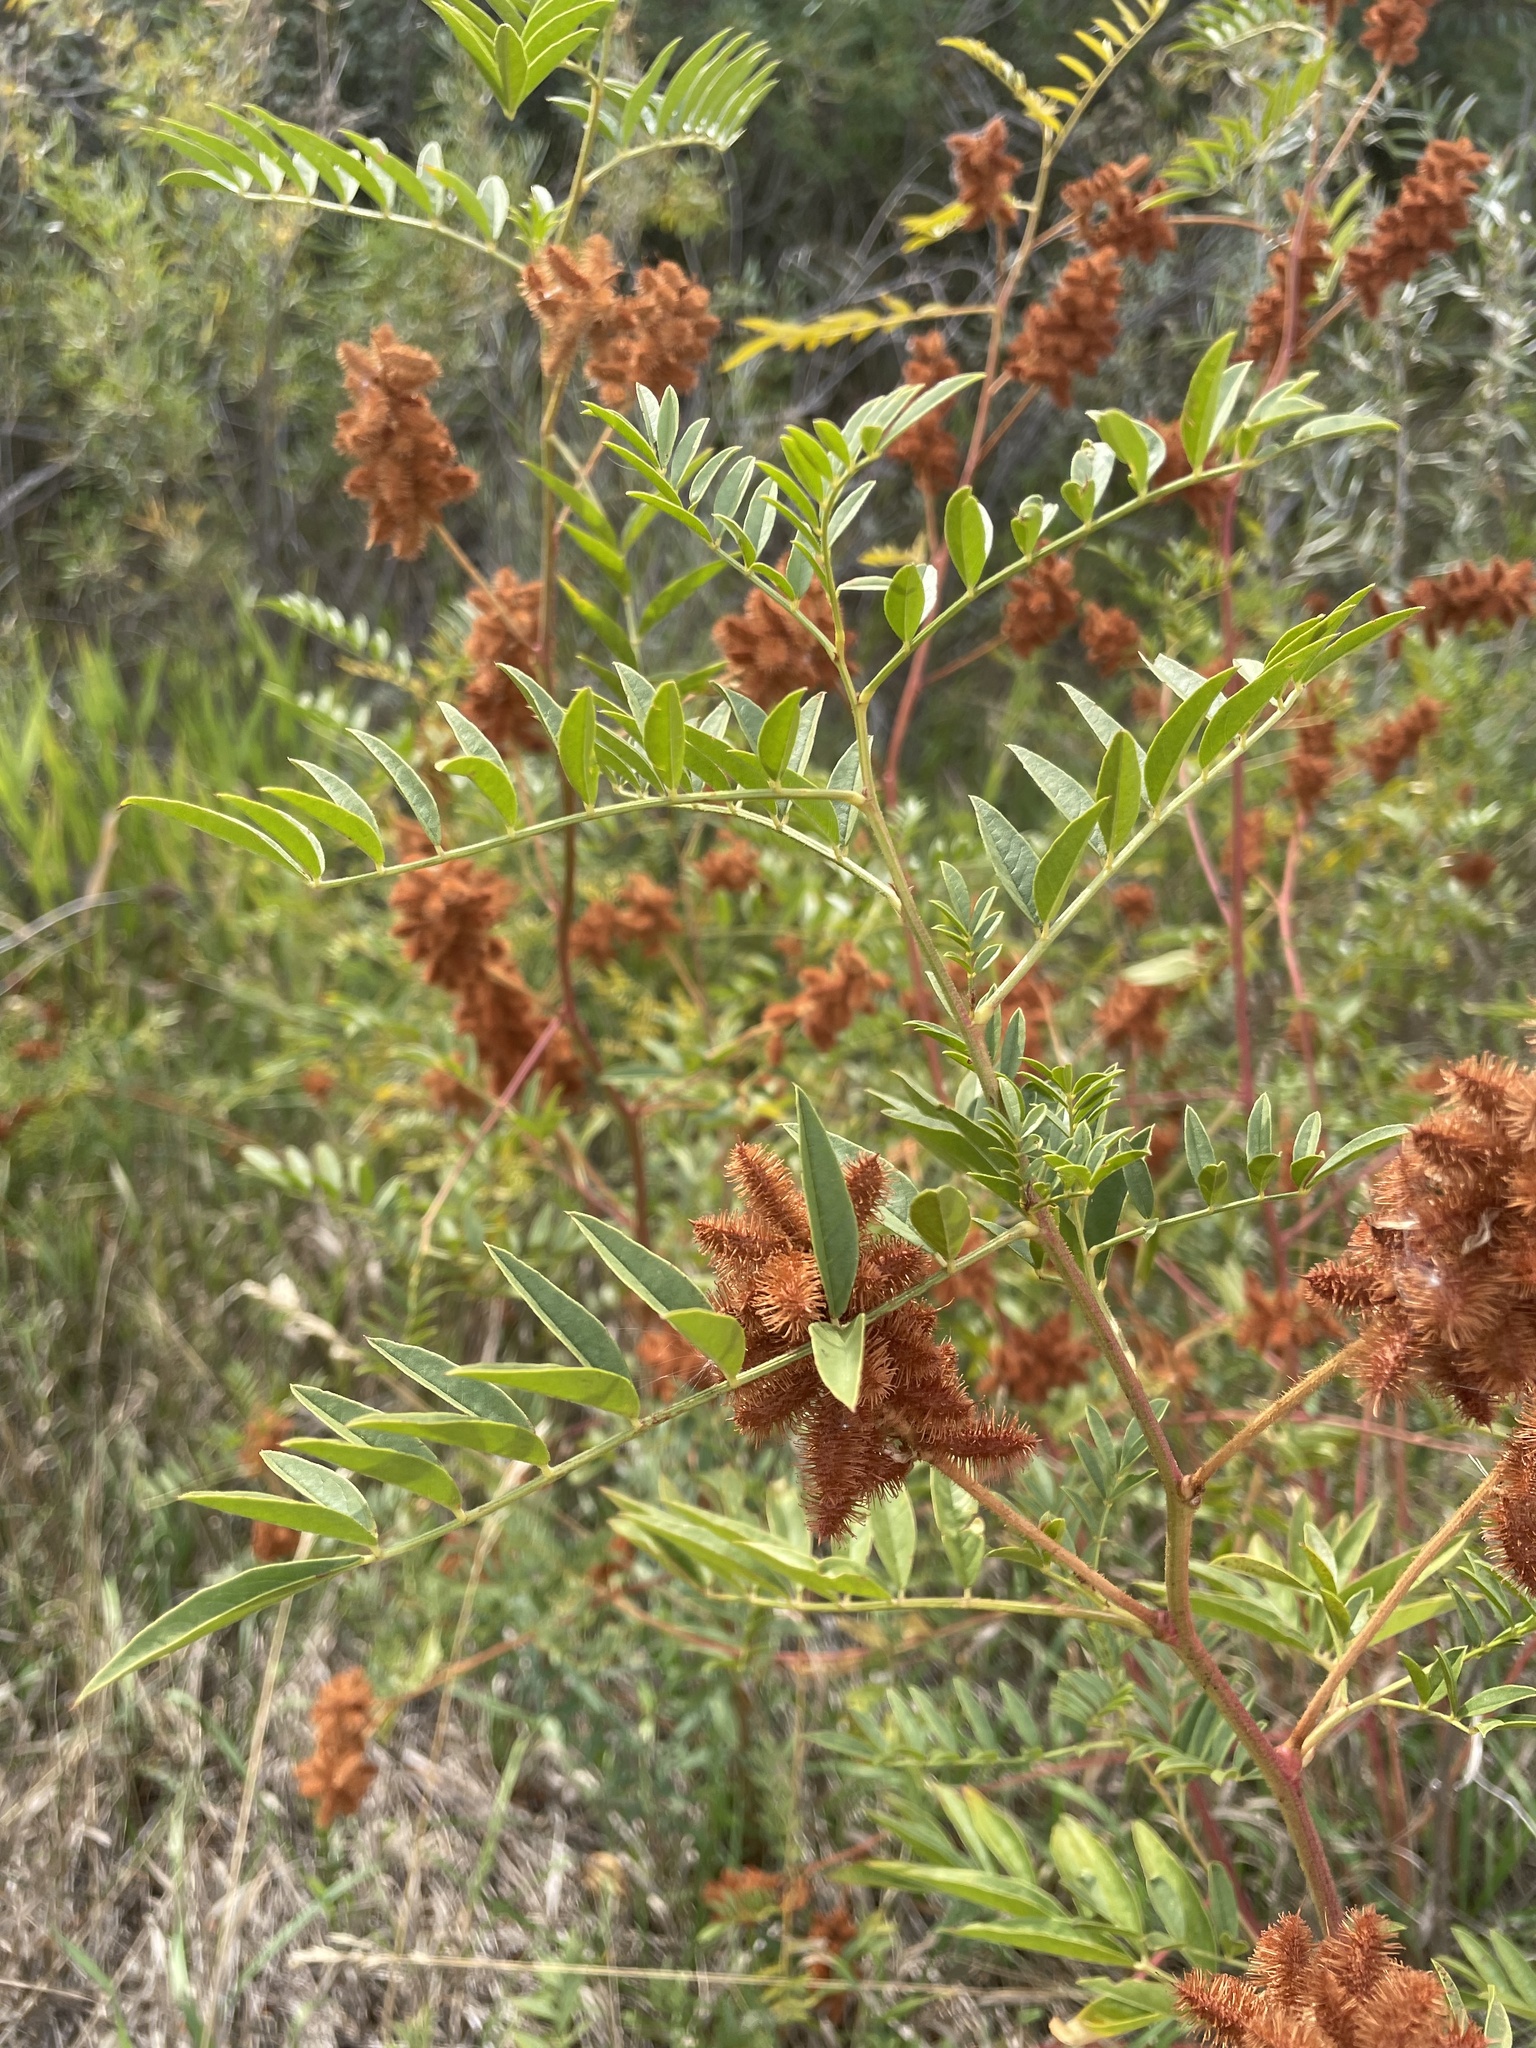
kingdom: Plantae
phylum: Tracheophyta
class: Magnoliopsida
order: Fabales
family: Fabaceae
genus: Glycyrrhiza
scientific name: Glycyrrhiza lepidota
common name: American liquorice
